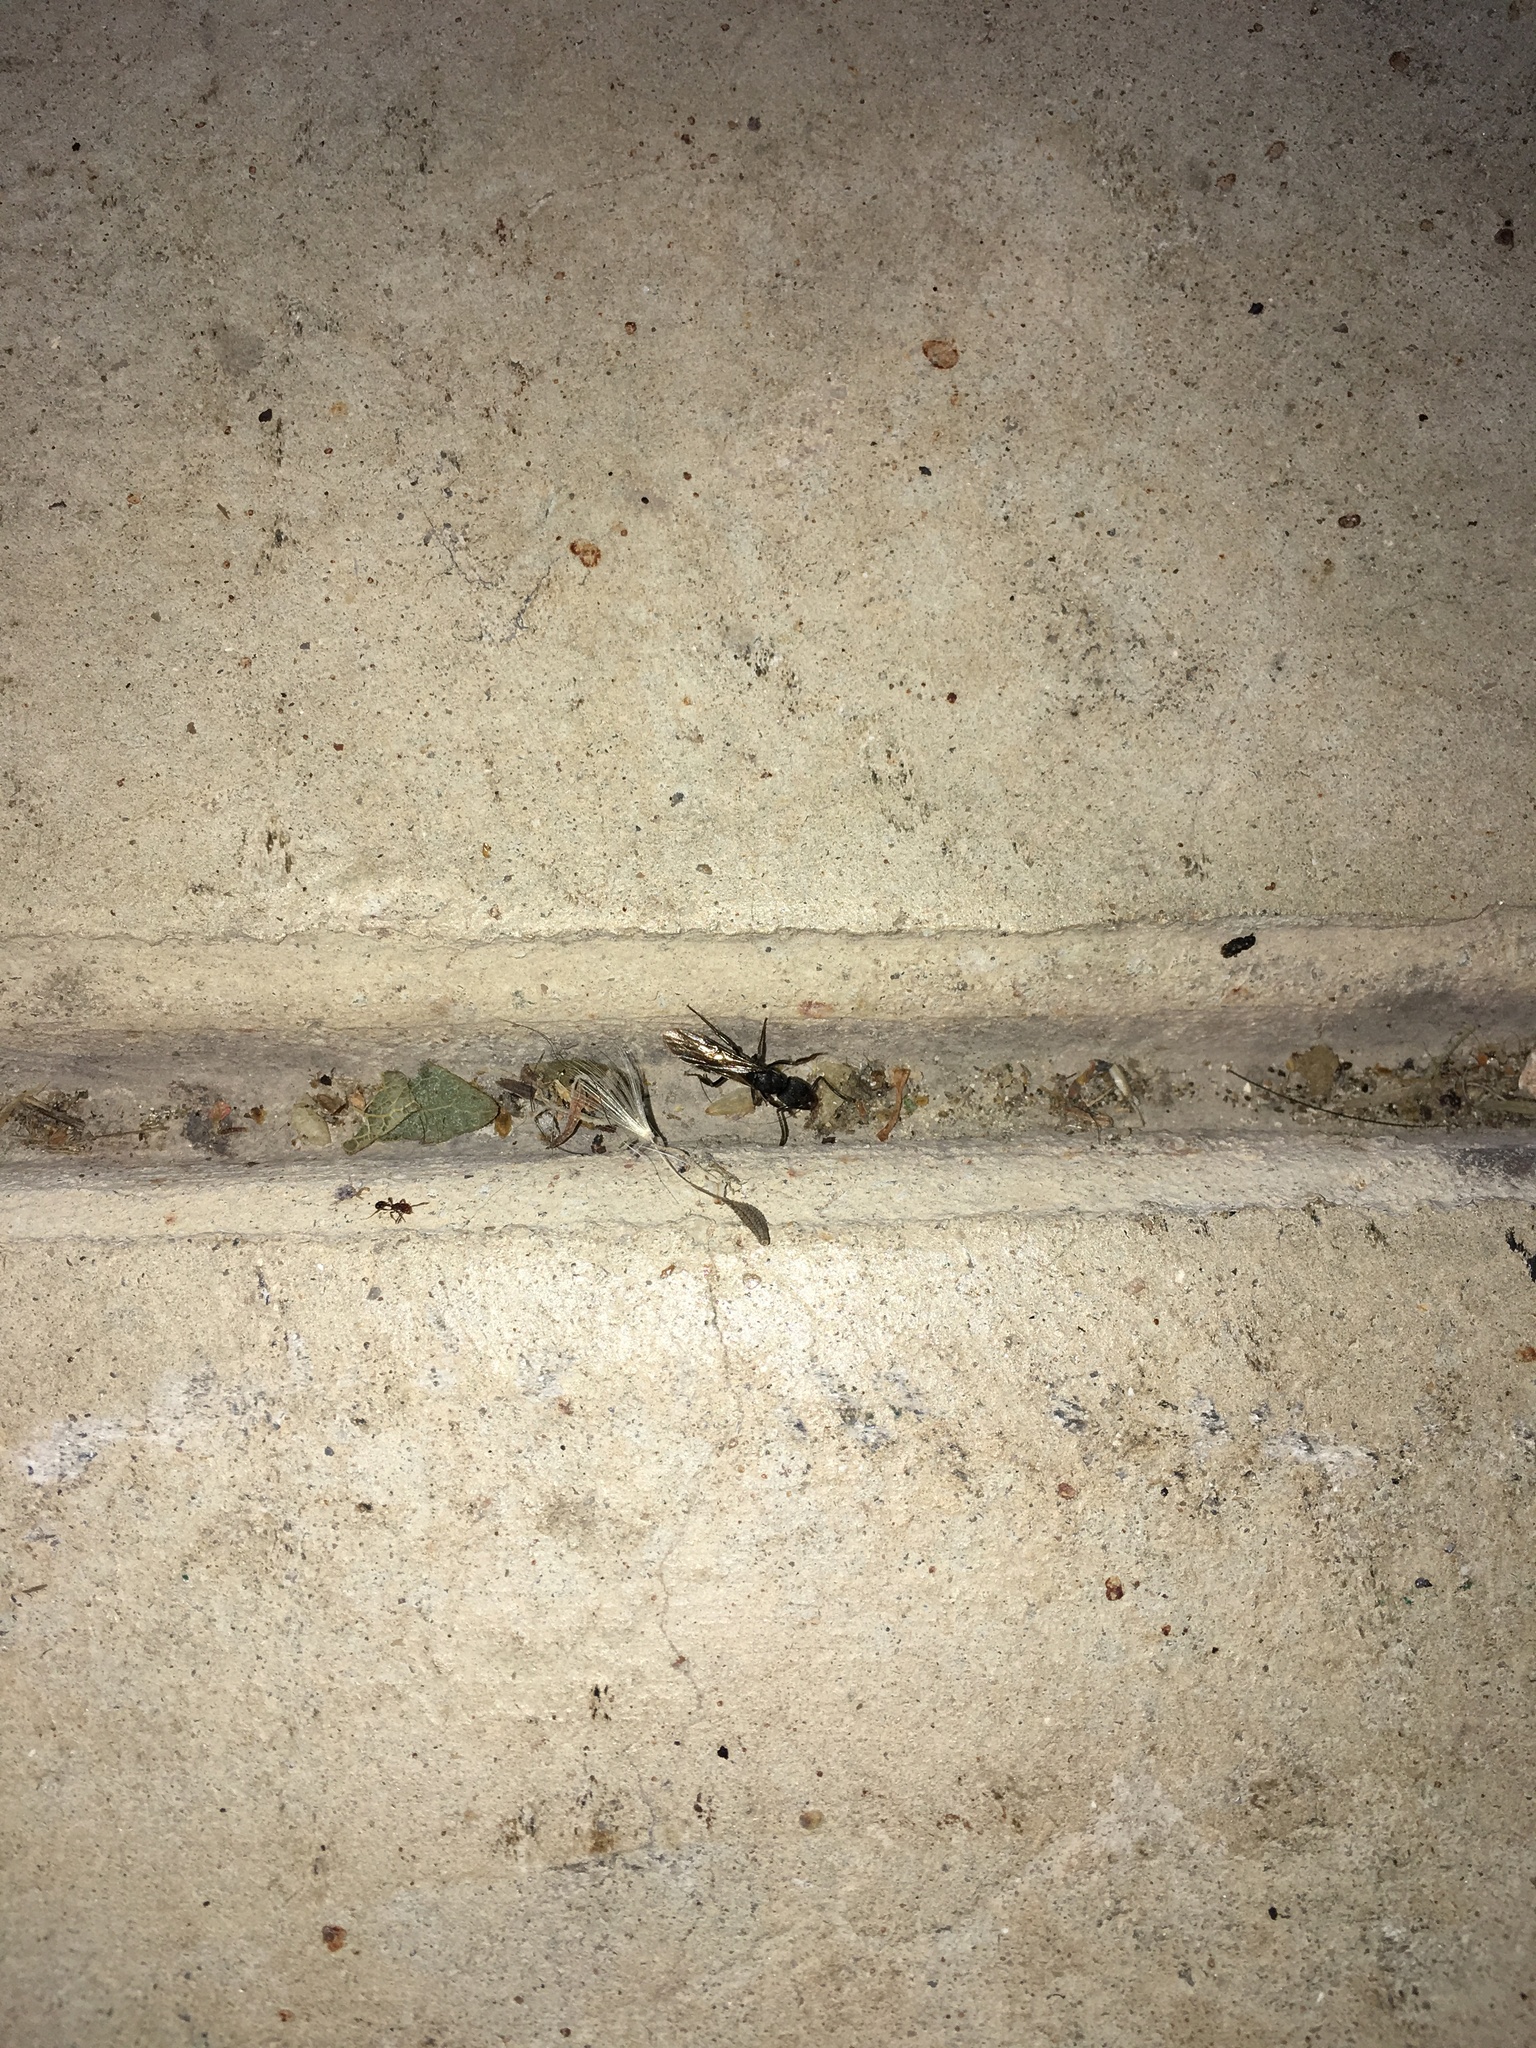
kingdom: Animalia
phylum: Arthropoda
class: Insecta
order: Hymenoptera
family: Formicidae
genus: Pachycondyla
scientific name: Pachycondyla harpax
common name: Ant
